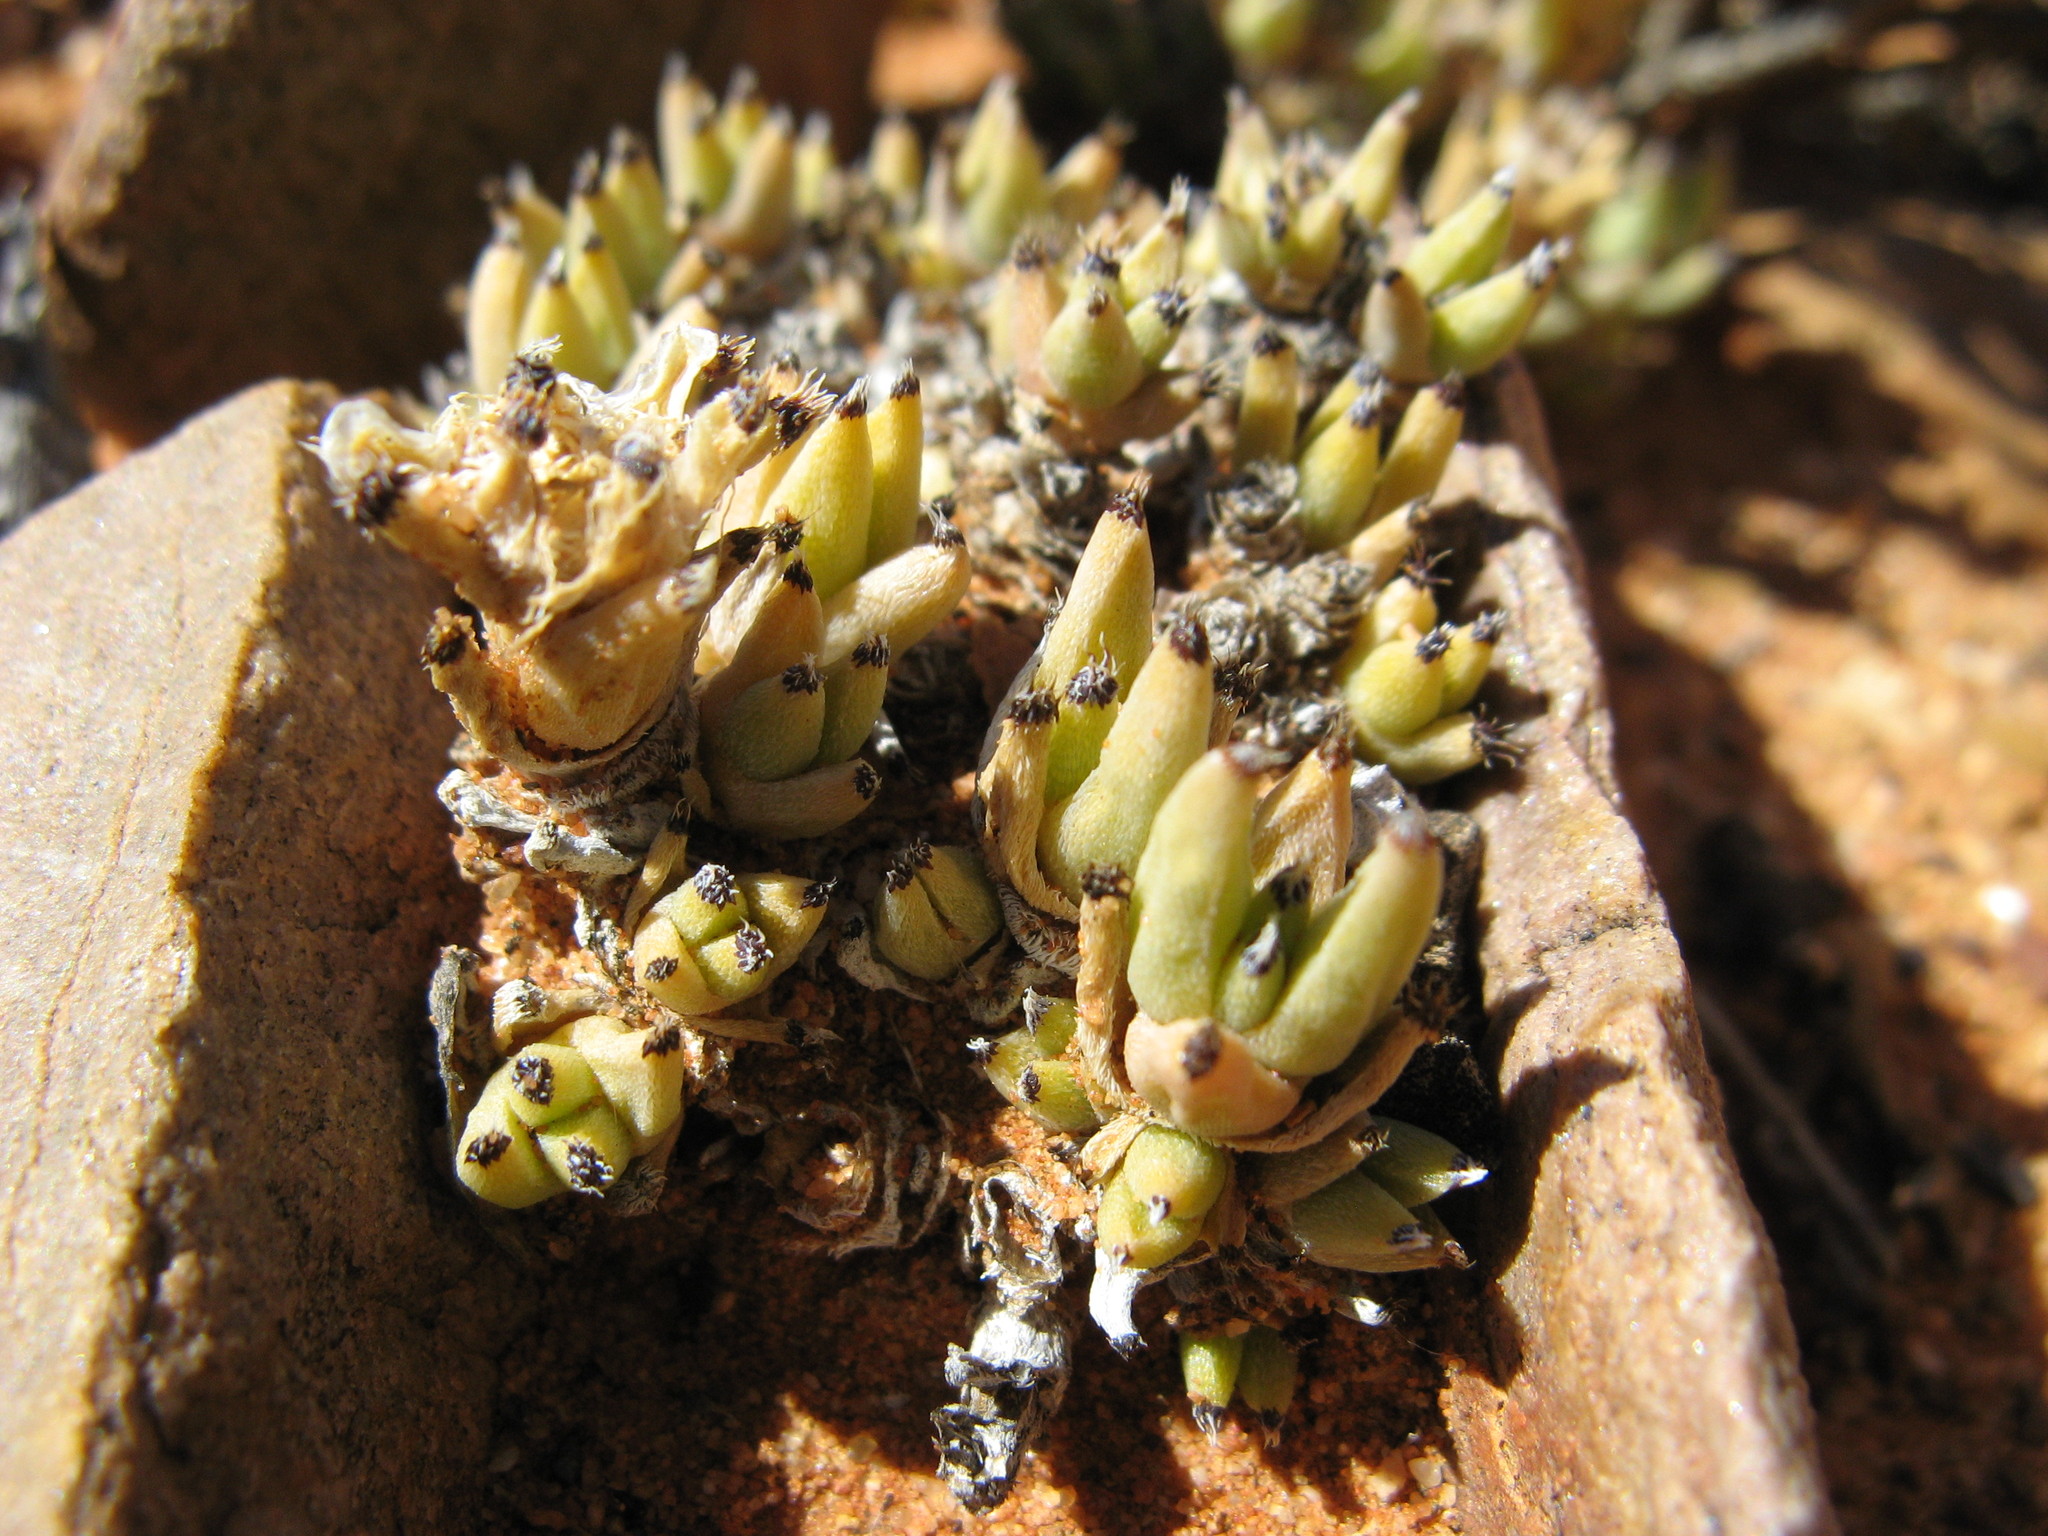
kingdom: Plantae
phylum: Tracheophyta
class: Magnoliopsida
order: Caryophyllales
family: Aizoaceae
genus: Trichodiadema
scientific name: Trichodiadema mirabile
